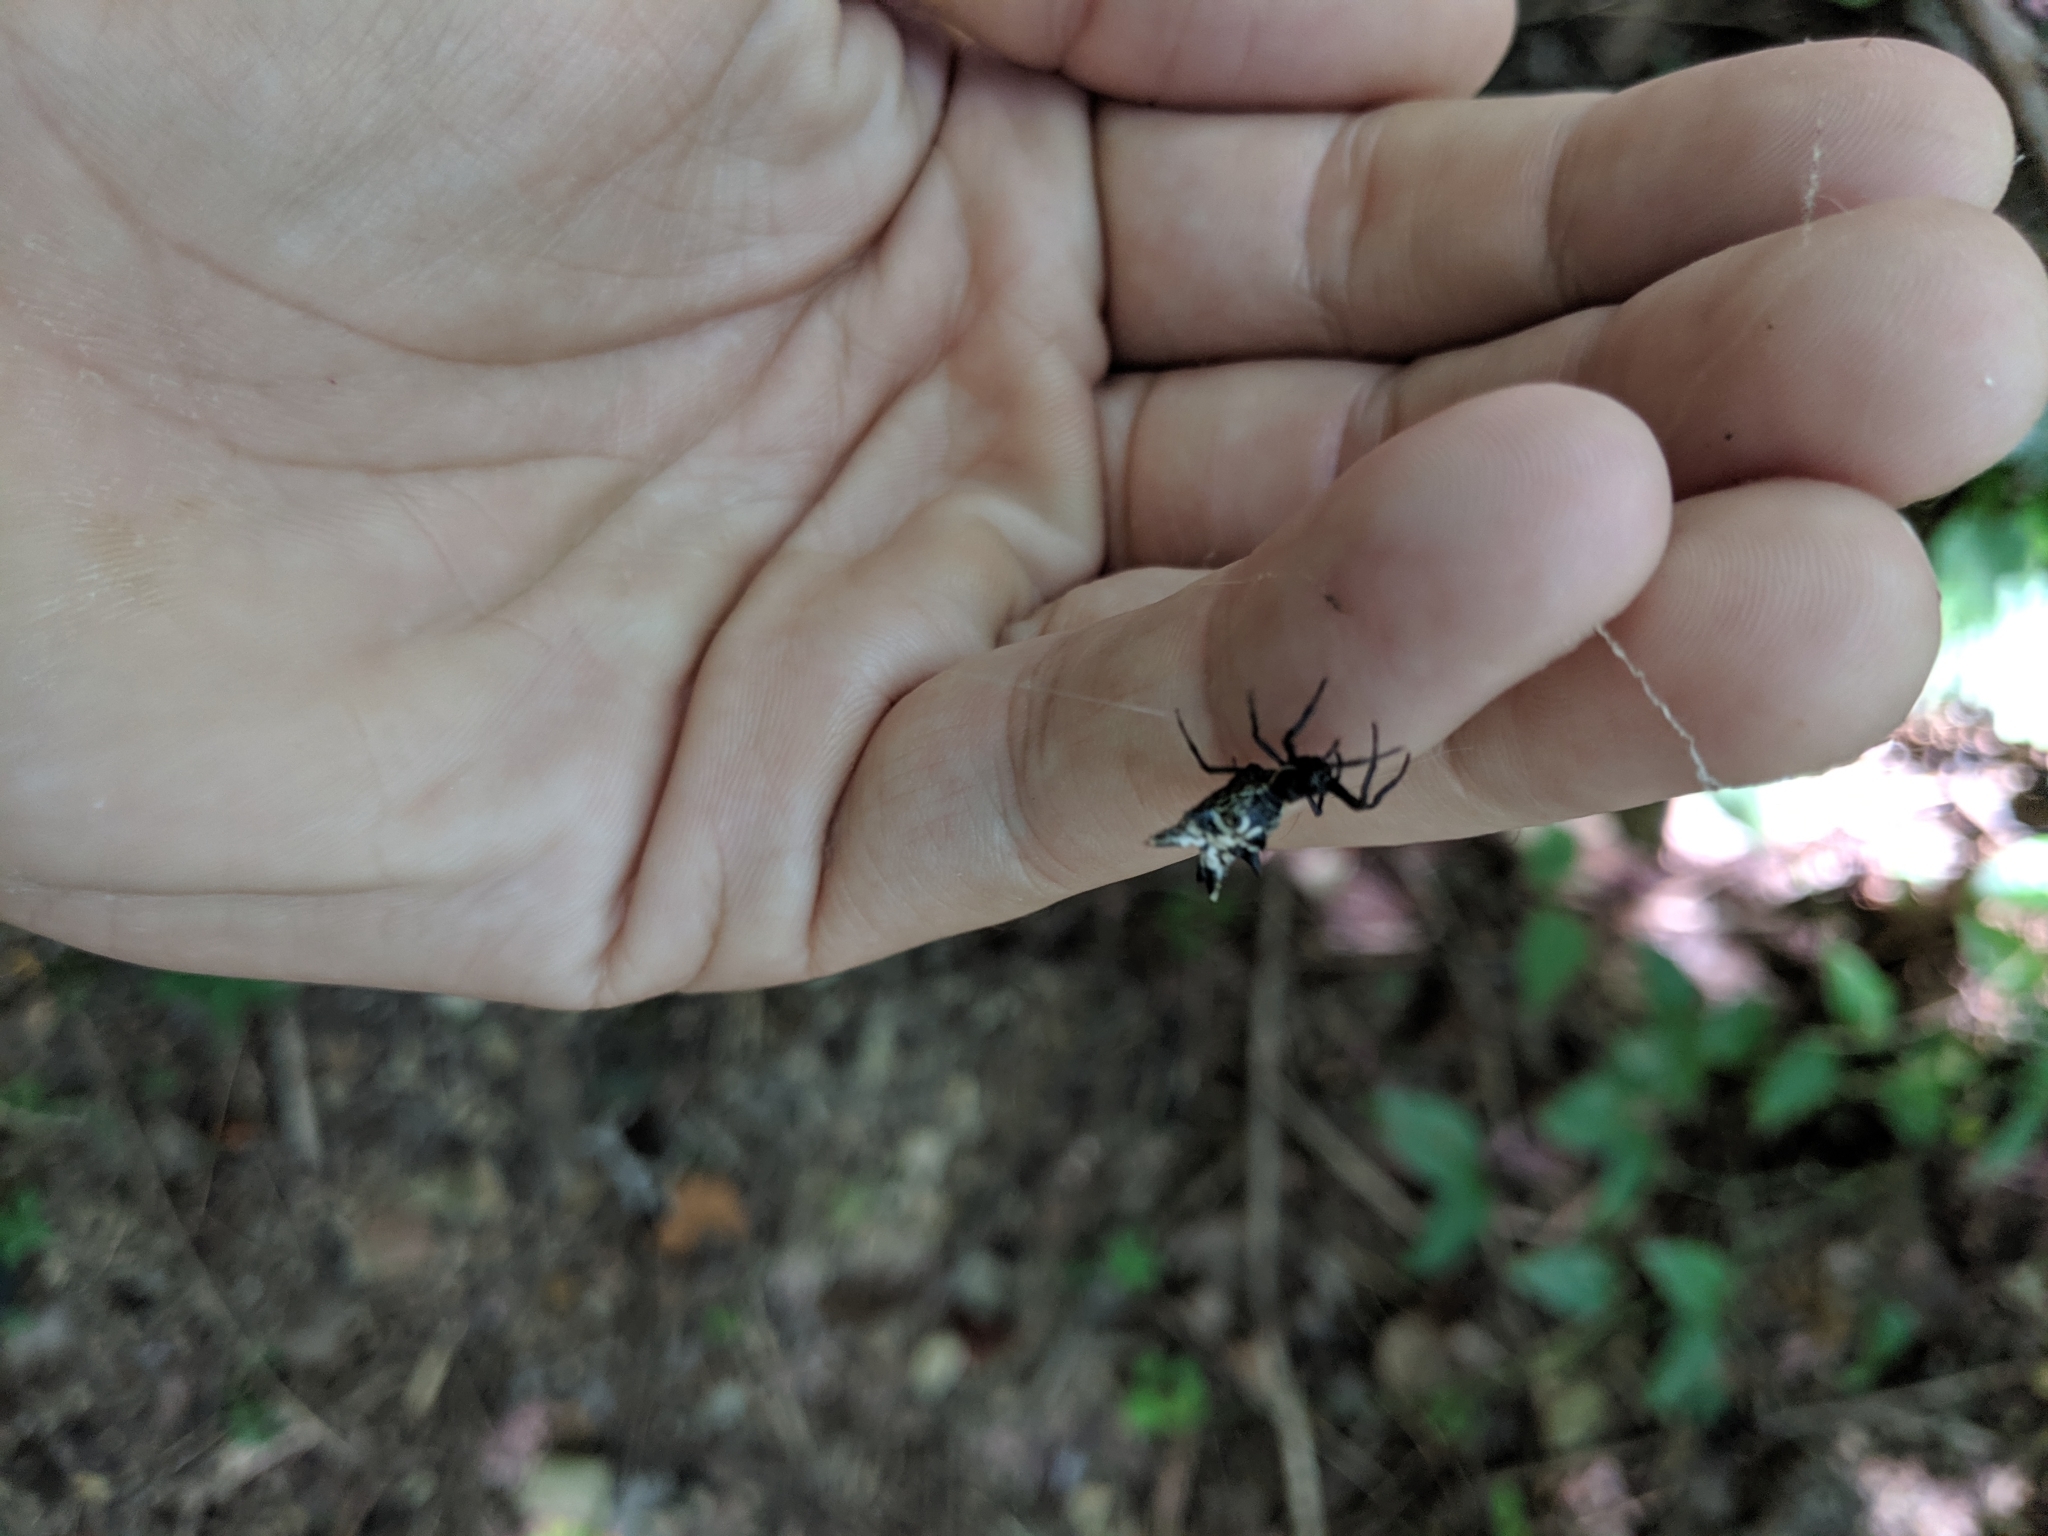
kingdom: Animalia
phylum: Arthropoda
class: Arachnida
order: Araneae
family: Araneidae
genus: Micrathena
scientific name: Micrathena gracilis
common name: Orb weavers
